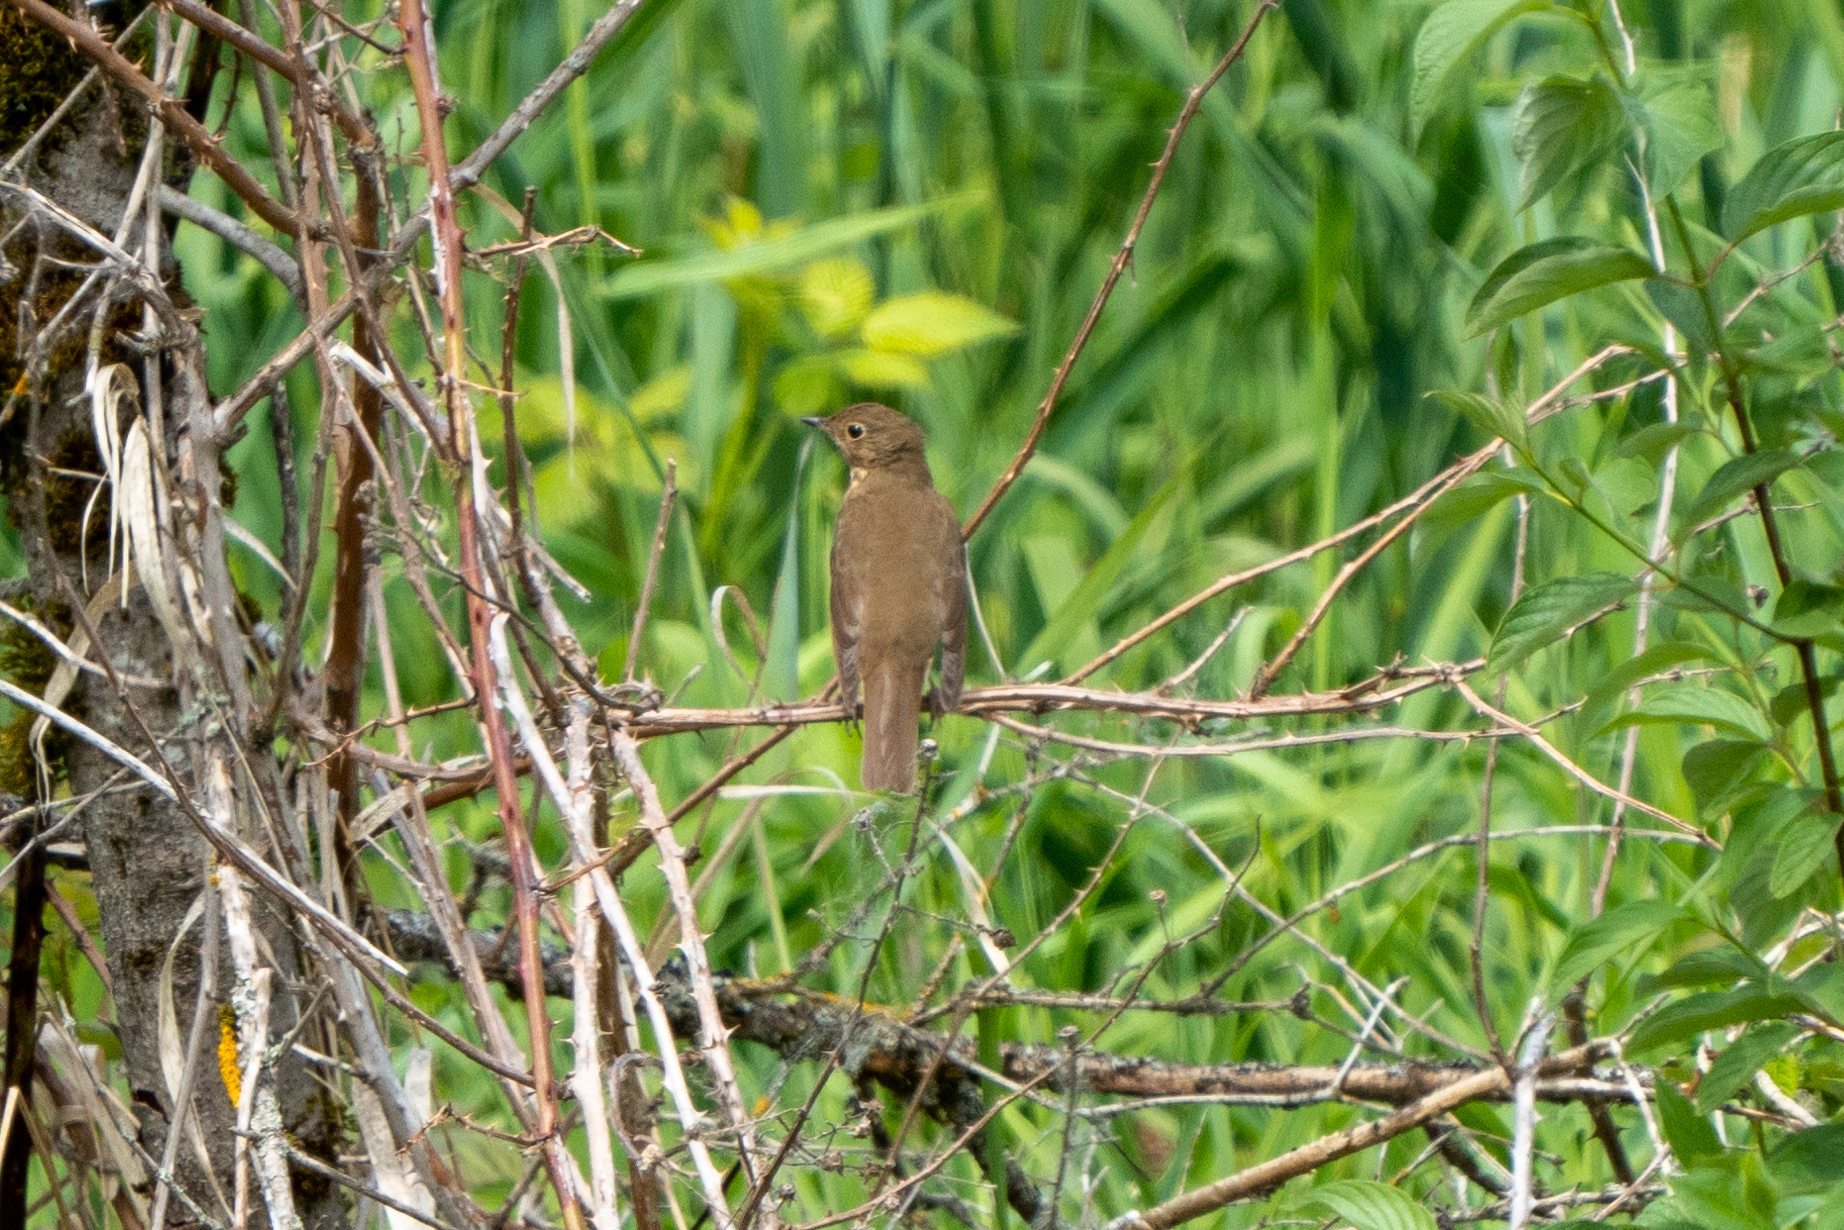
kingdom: Animalia
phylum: Chordata
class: Aves
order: Passeriformes
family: Turdidae
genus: Catharus
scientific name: Catharus ustulatus
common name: Swainson's thrush
